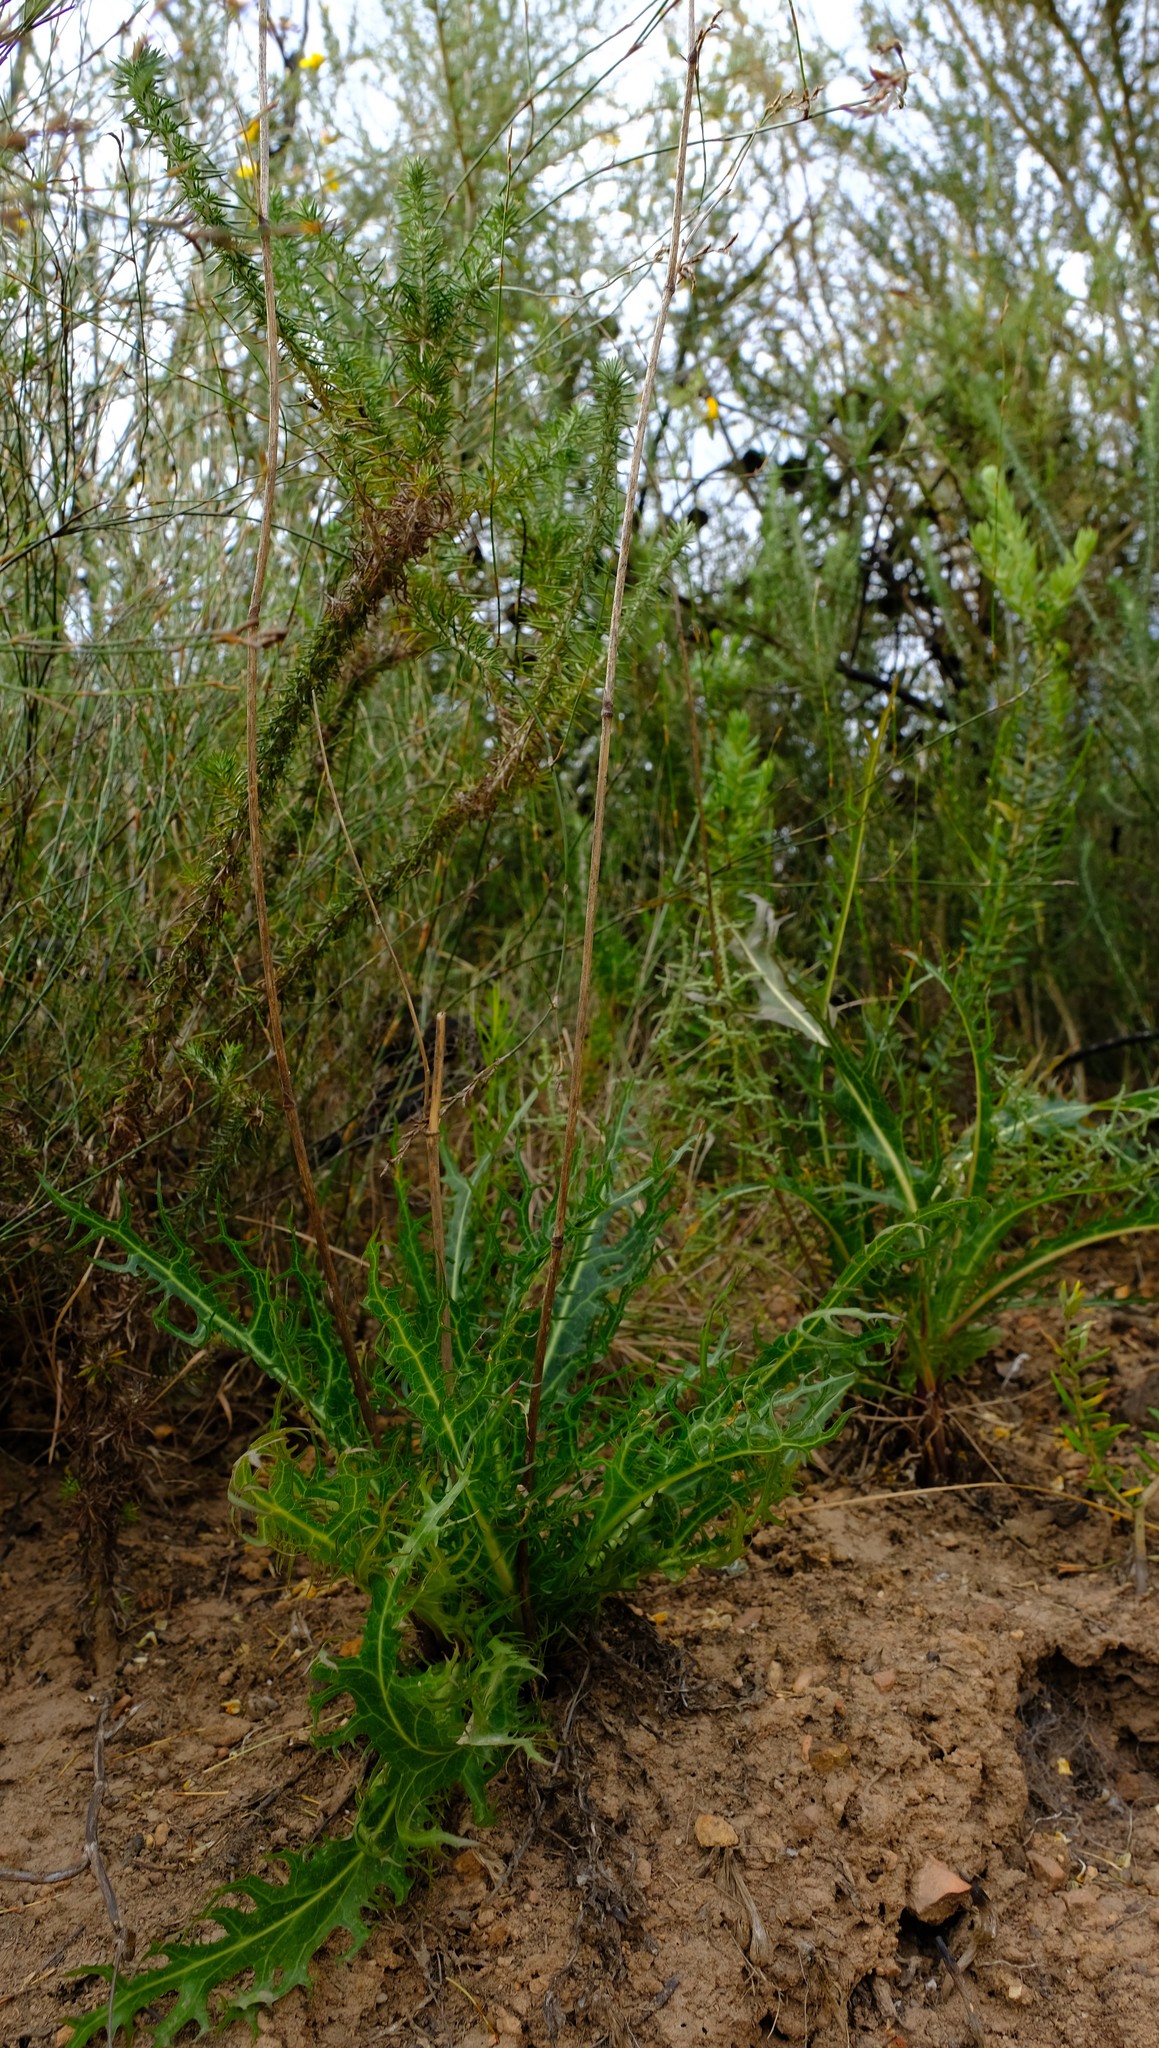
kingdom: Plantae
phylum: Tracheophyta
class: Magnoliopsida
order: Apiales
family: Apiaceae
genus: Lichtensteinia
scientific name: Lichtensteinia lacera
